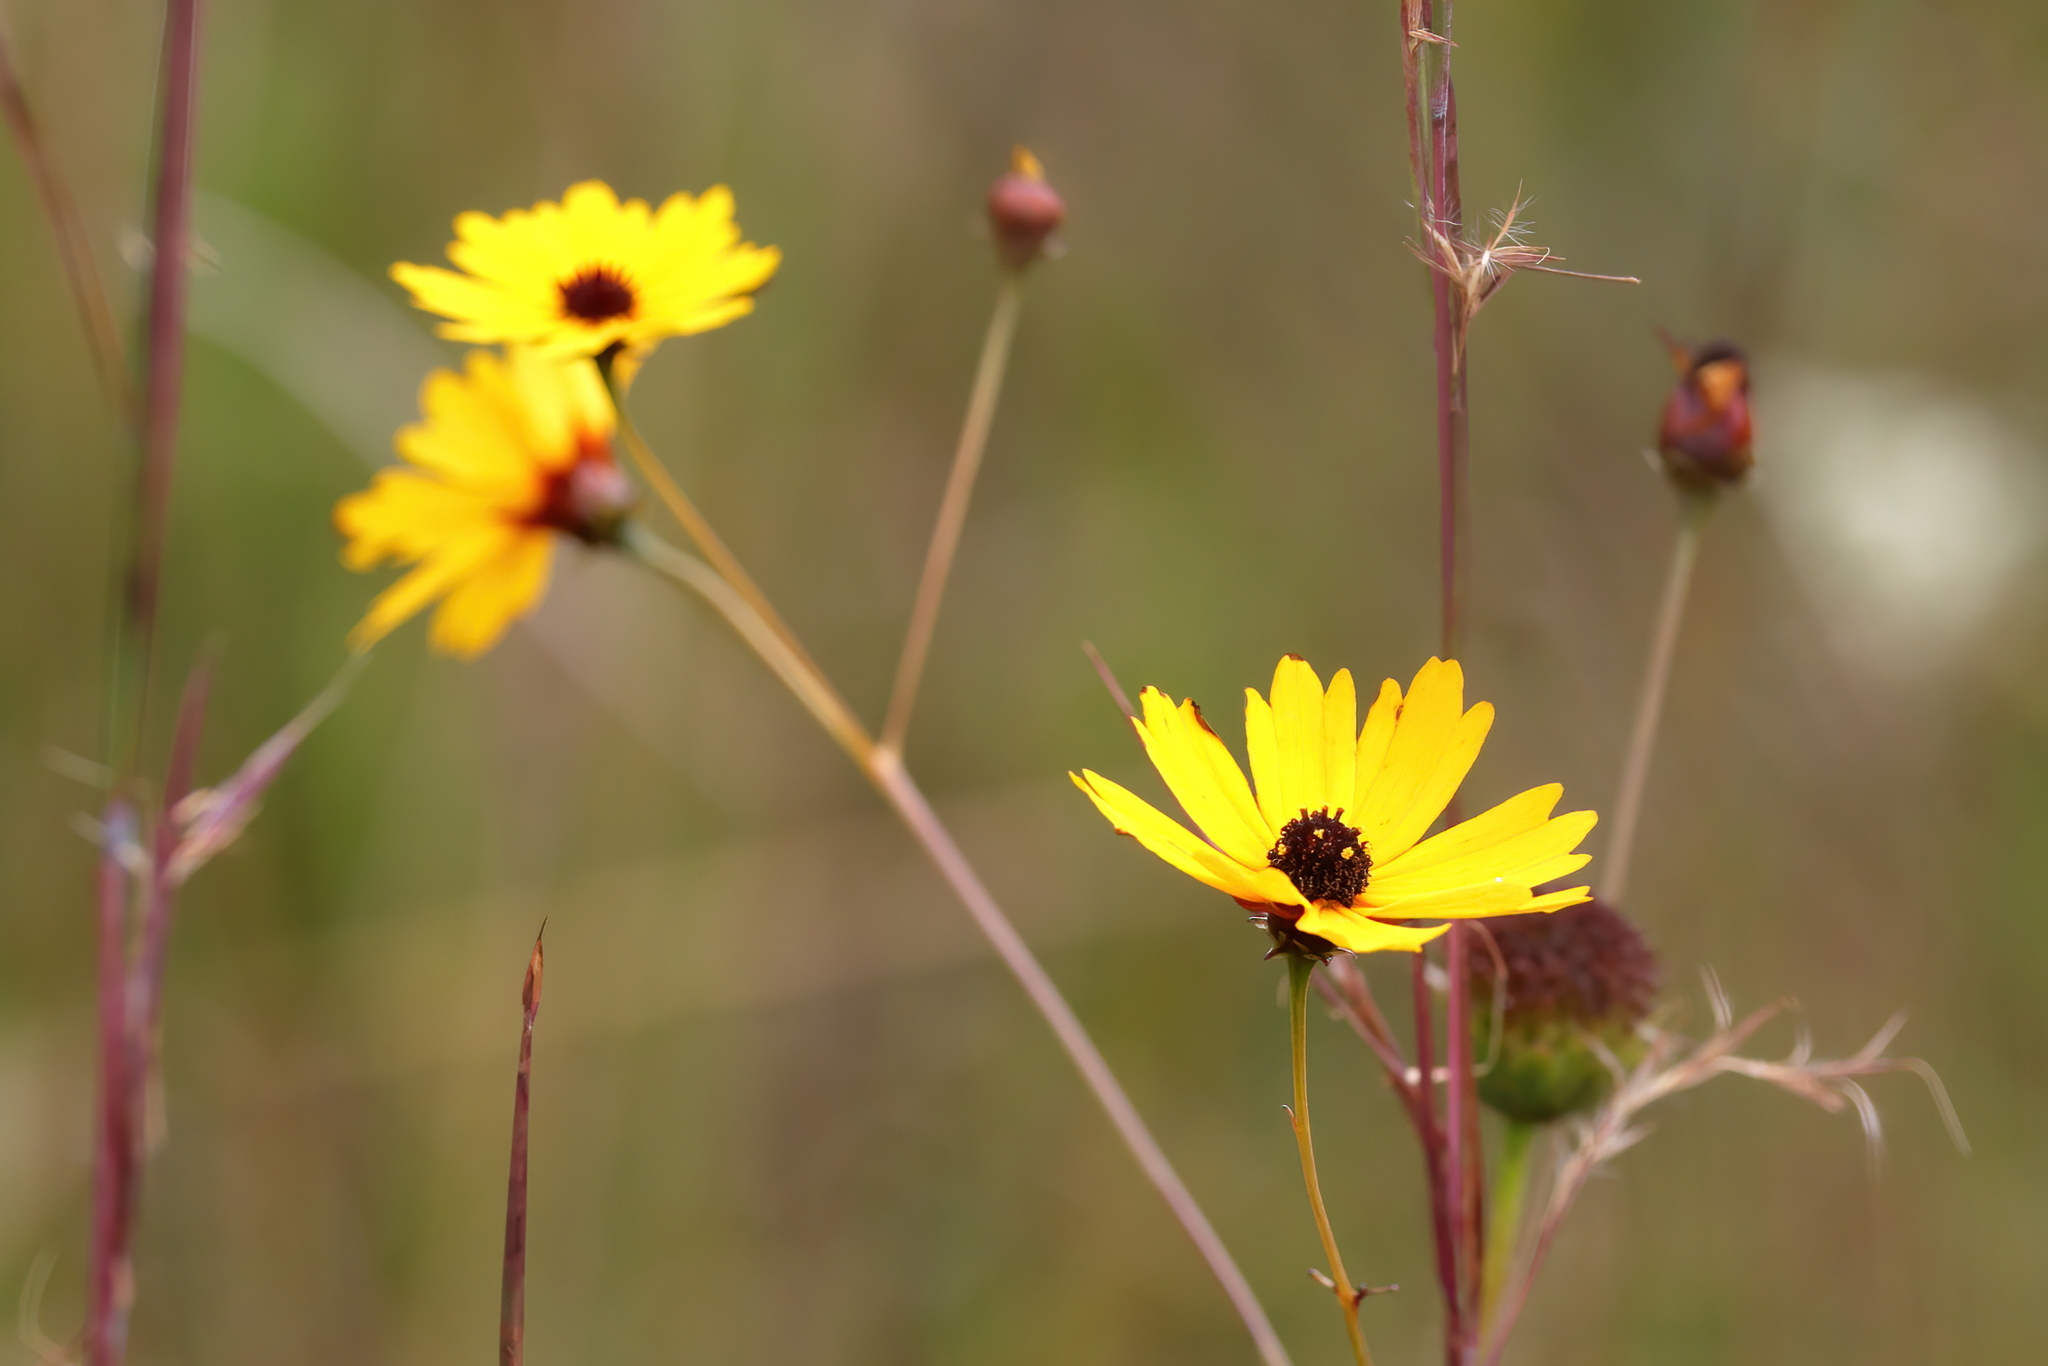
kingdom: Plantae
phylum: Tracheophyta
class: Magnoliopsida
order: Asterales
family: Asteraceae
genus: Coreopsis
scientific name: Coreopsis gladiata
